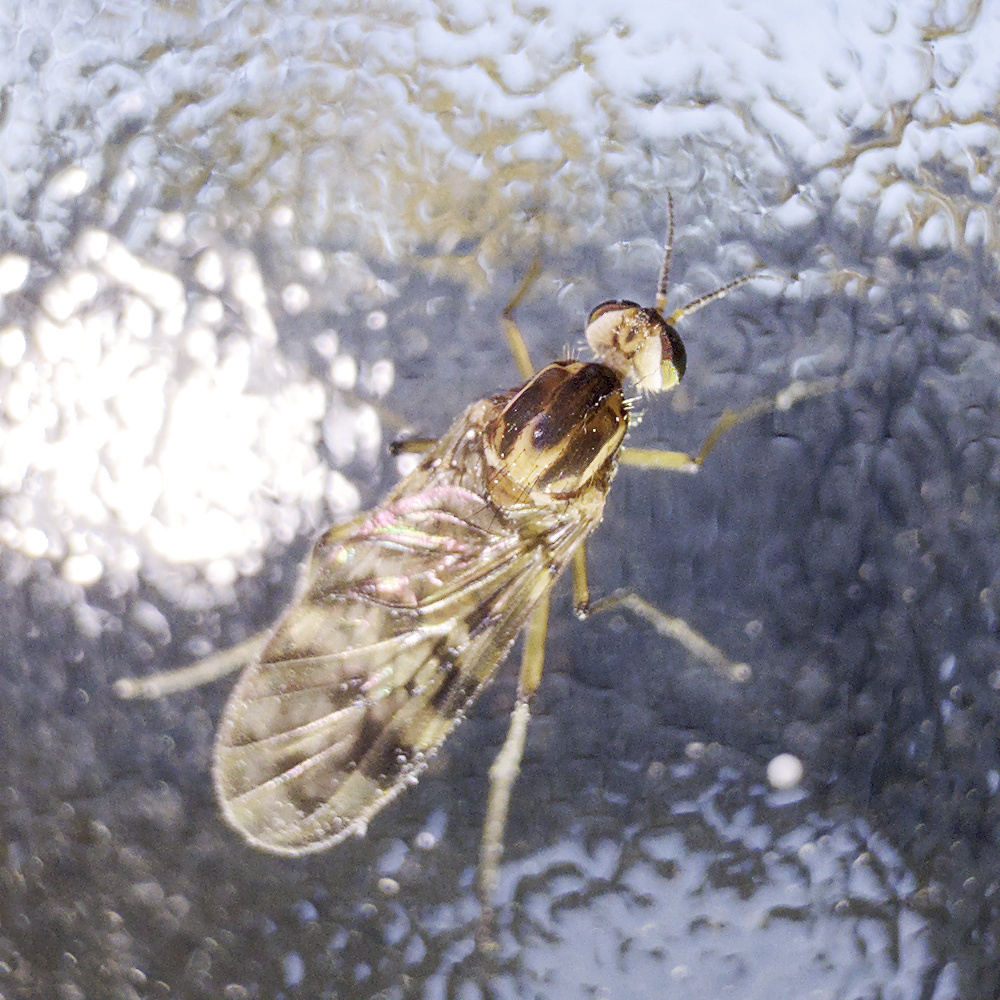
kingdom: Animalia
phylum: Arthropoda
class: Insecta
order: Diptera
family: Anisopodidae
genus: Sylvicola
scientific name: Sylvicola dubius
